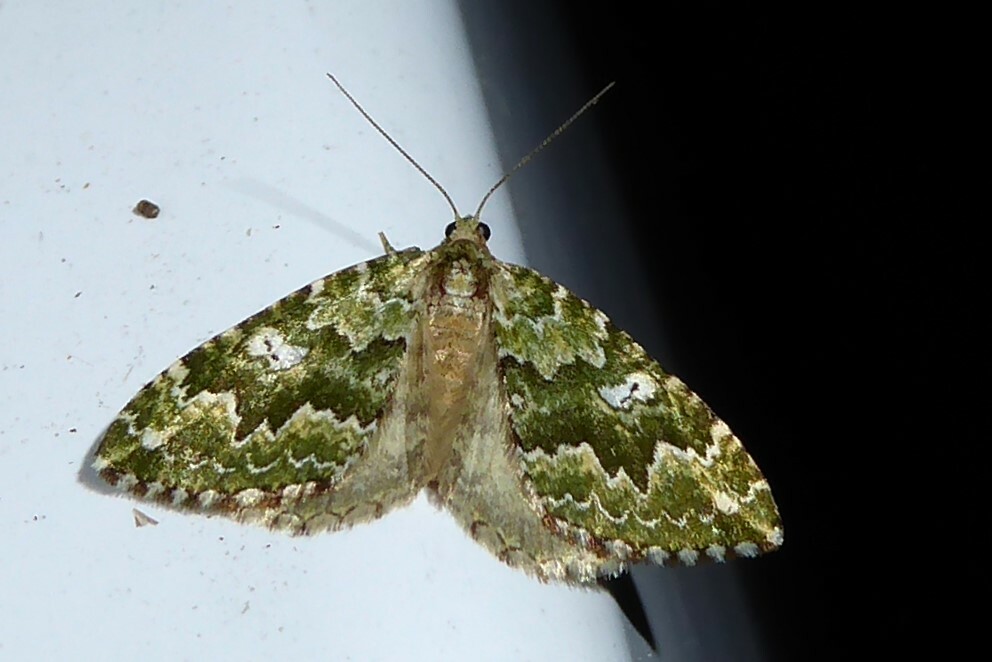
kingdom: Animalia
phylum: Arthropoda
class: Insecta
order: Lepidoptera
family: Geometridae
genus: Asaphodes
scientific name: Asaphodes beata
